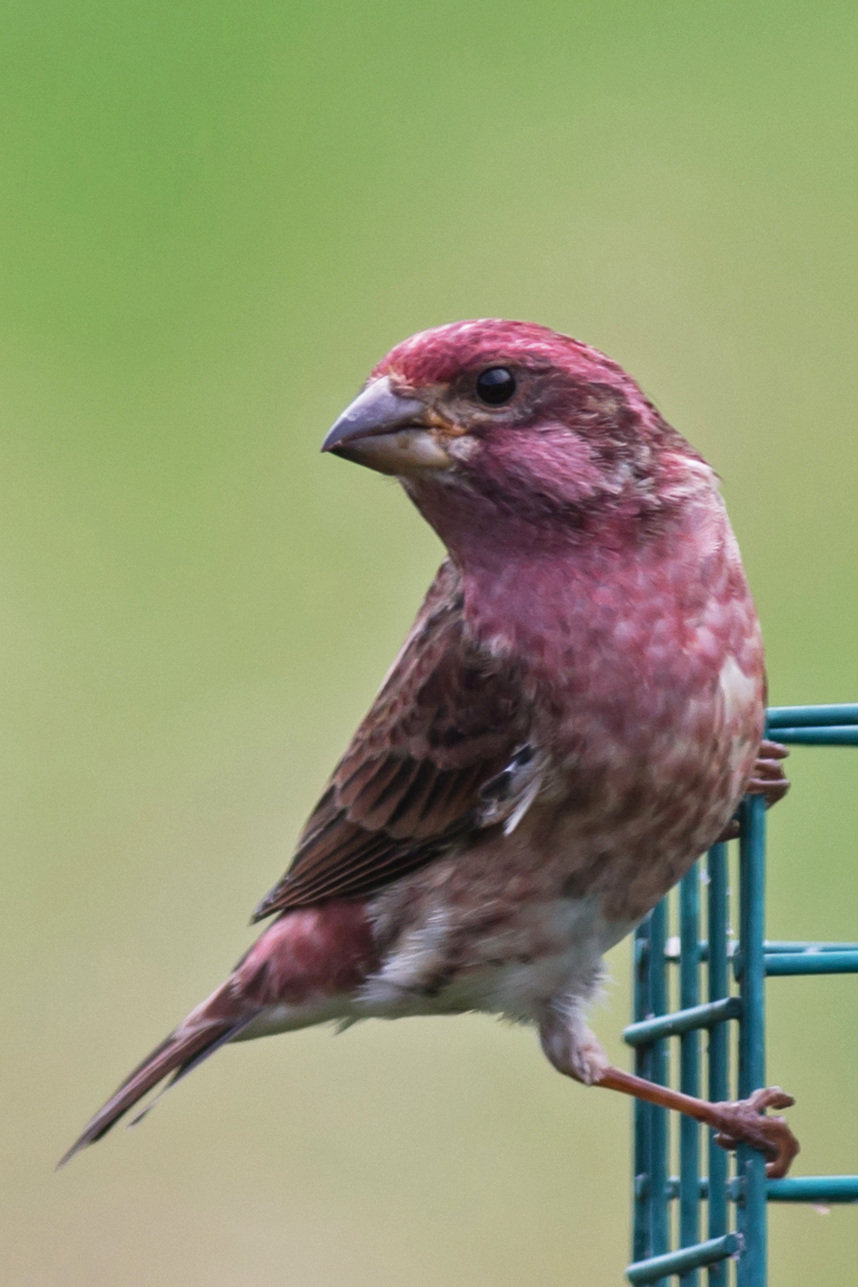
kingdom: Animalia
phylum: Chordata
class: Aves
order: Passeriformes
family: Fringillidae
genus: Haemorhous
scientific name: Haemorhous purpureus
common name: Purple finch
